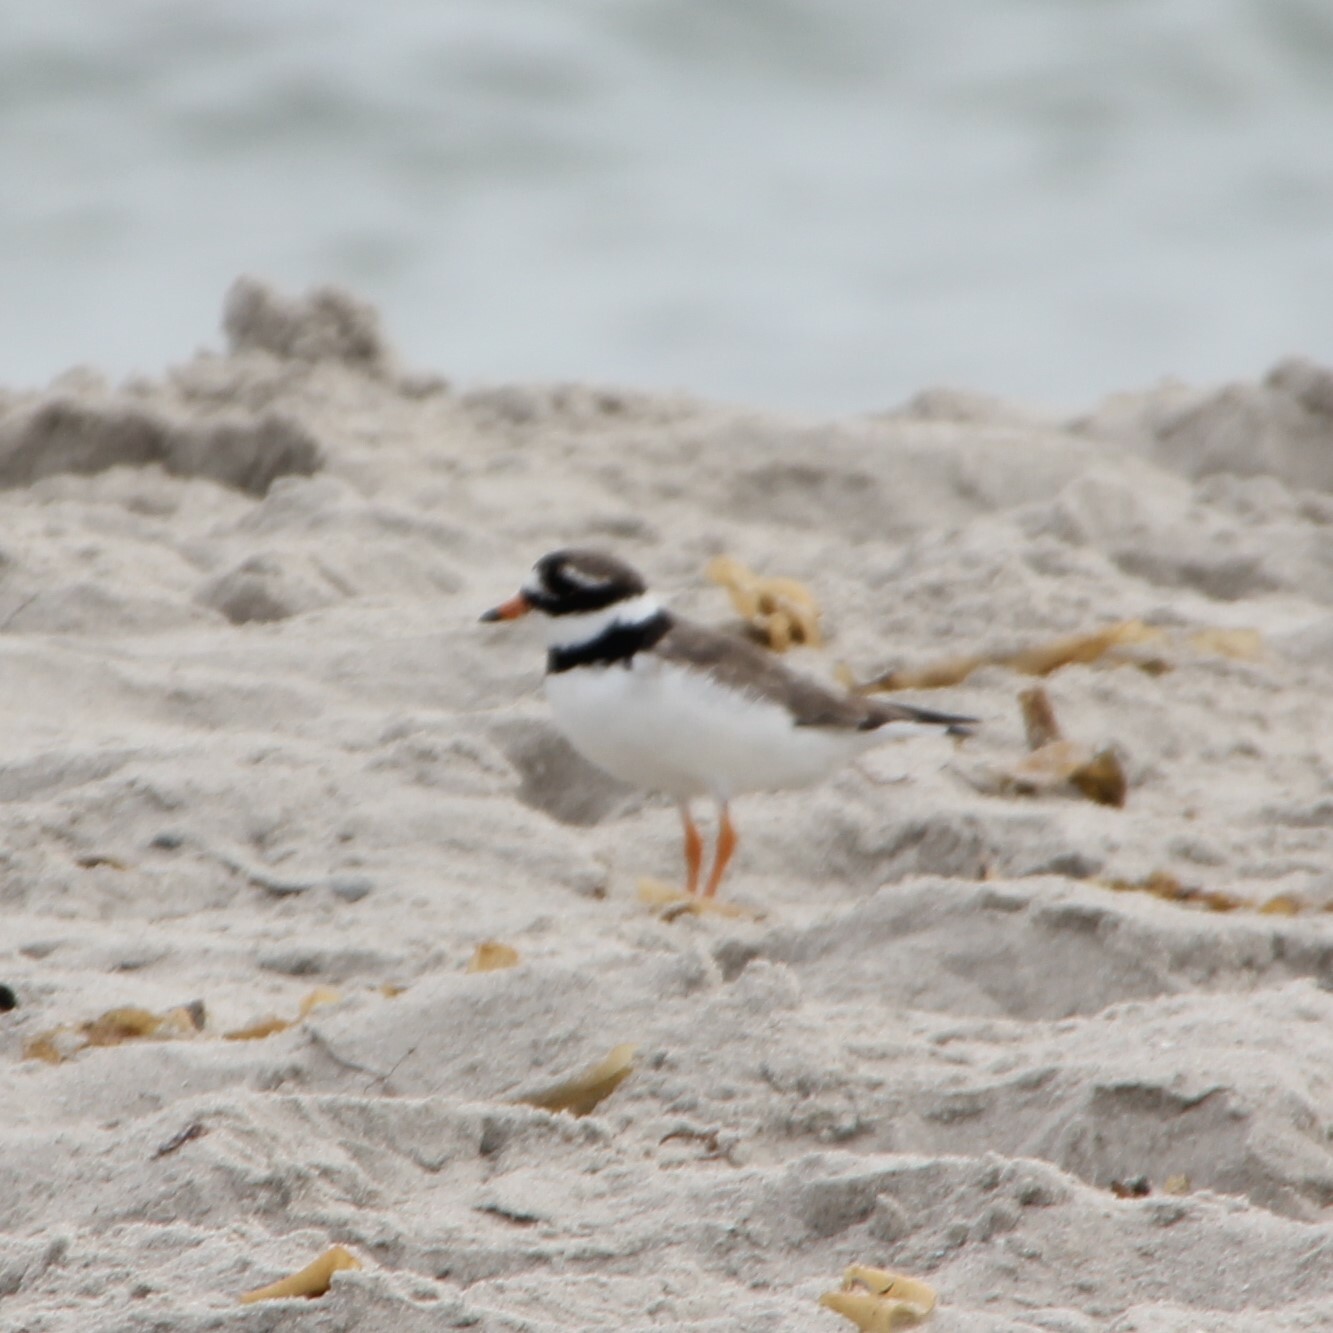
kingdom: Animalia
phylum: Chordata
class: Aves
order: Charadriiformes
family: Charadriidae
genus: Charadrius
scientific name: Charadrius hiaticula
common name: Common ringed plover
